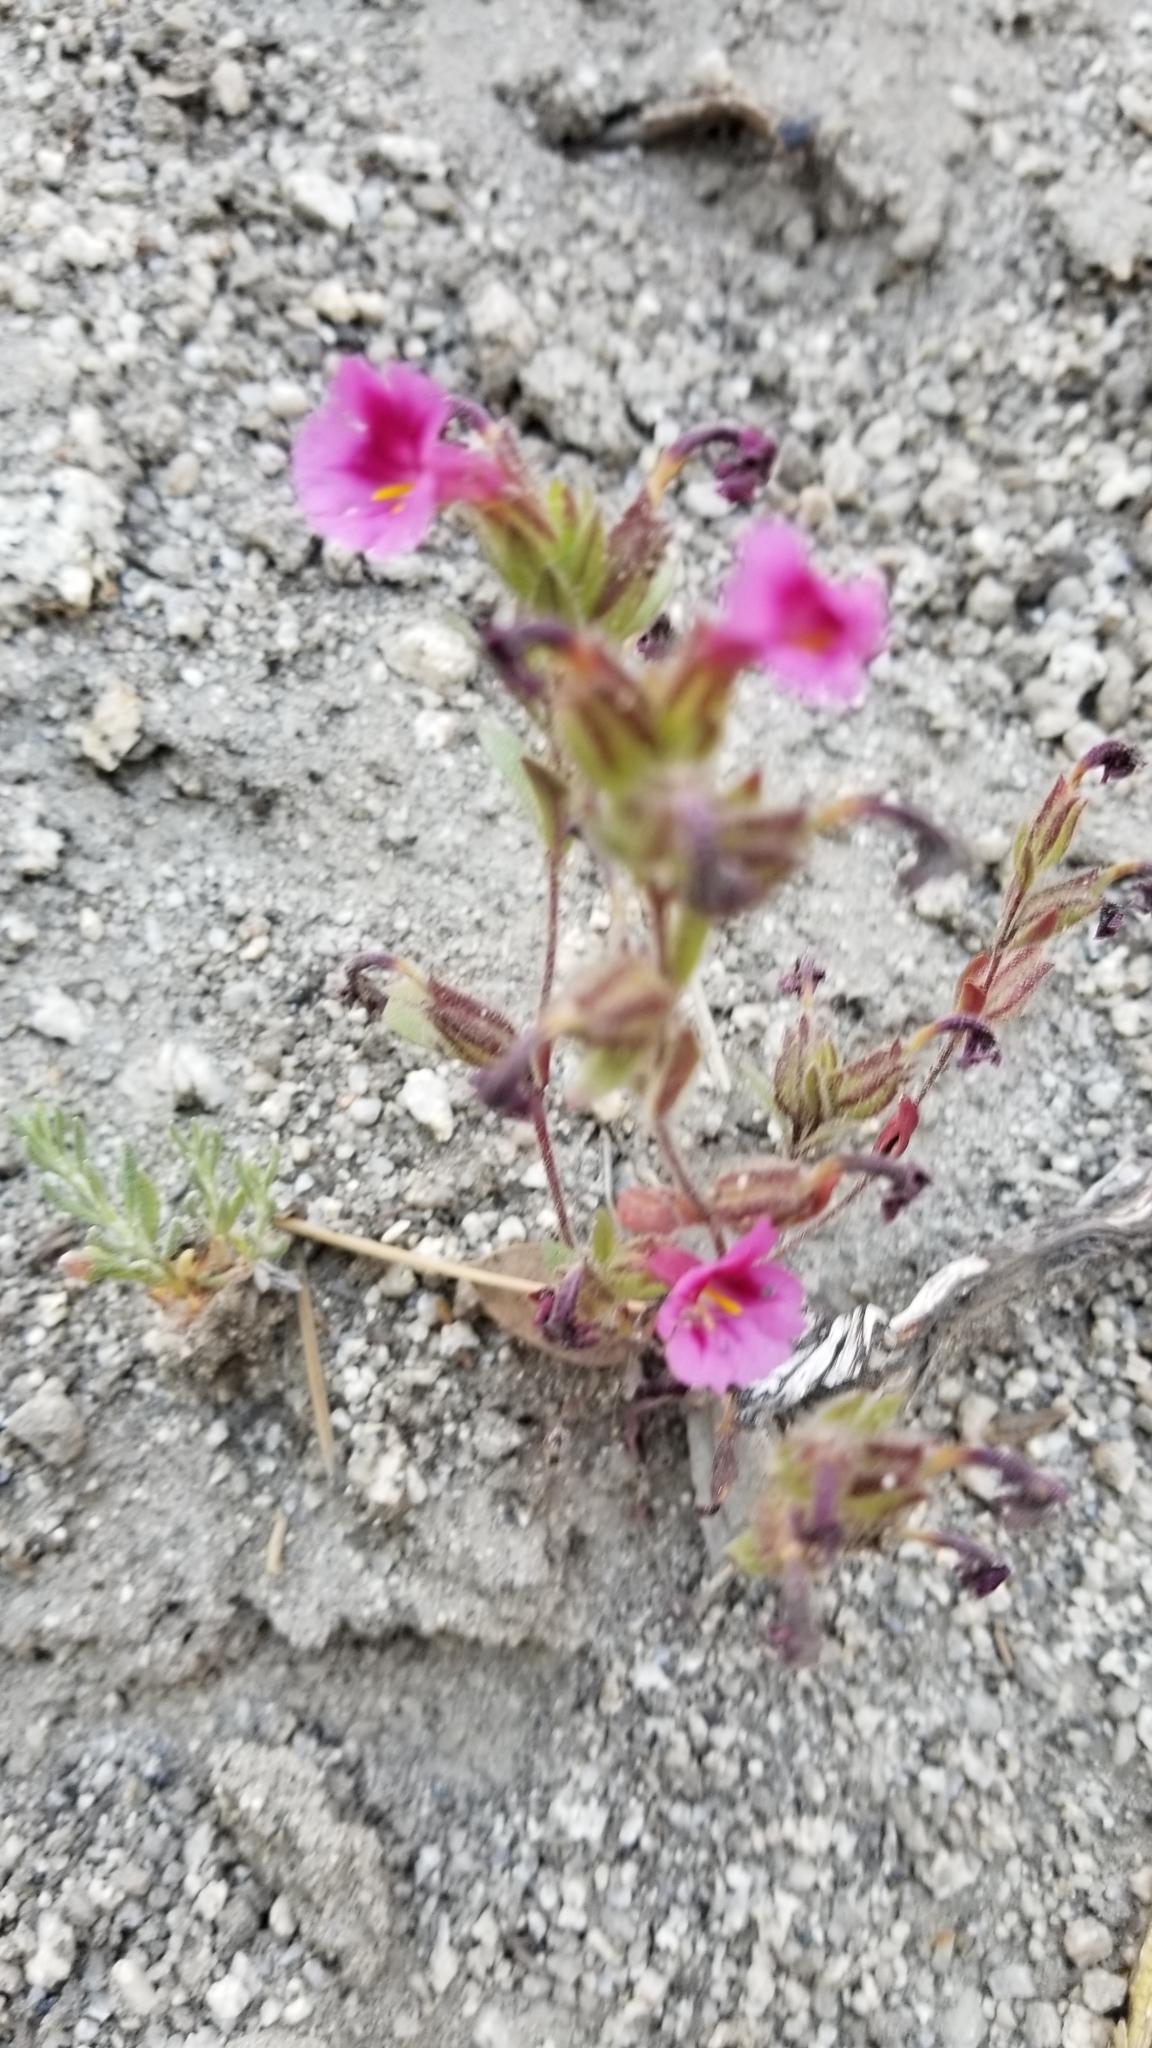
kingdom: Plantae
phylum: Tracheophyta
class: Magnoliopsida
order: Lamiales
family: Phrymaceae
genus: Diplacus
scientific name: Diplacus fremontii
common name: Fremont's monkey-flower
